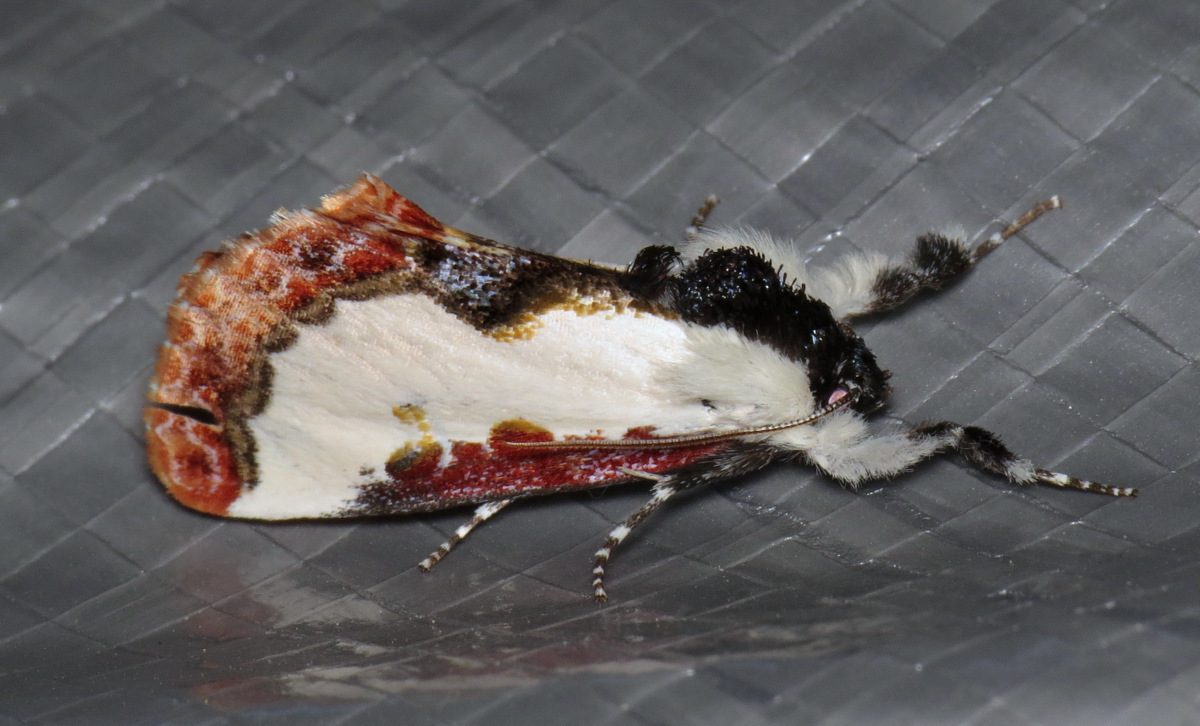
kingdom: Animalia
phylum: Arthropoda
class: Insecta
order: Lepidoptera
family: Noctuidae
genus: Eudryas
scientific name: Eudryas unio
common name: Pearly wood-nymph
